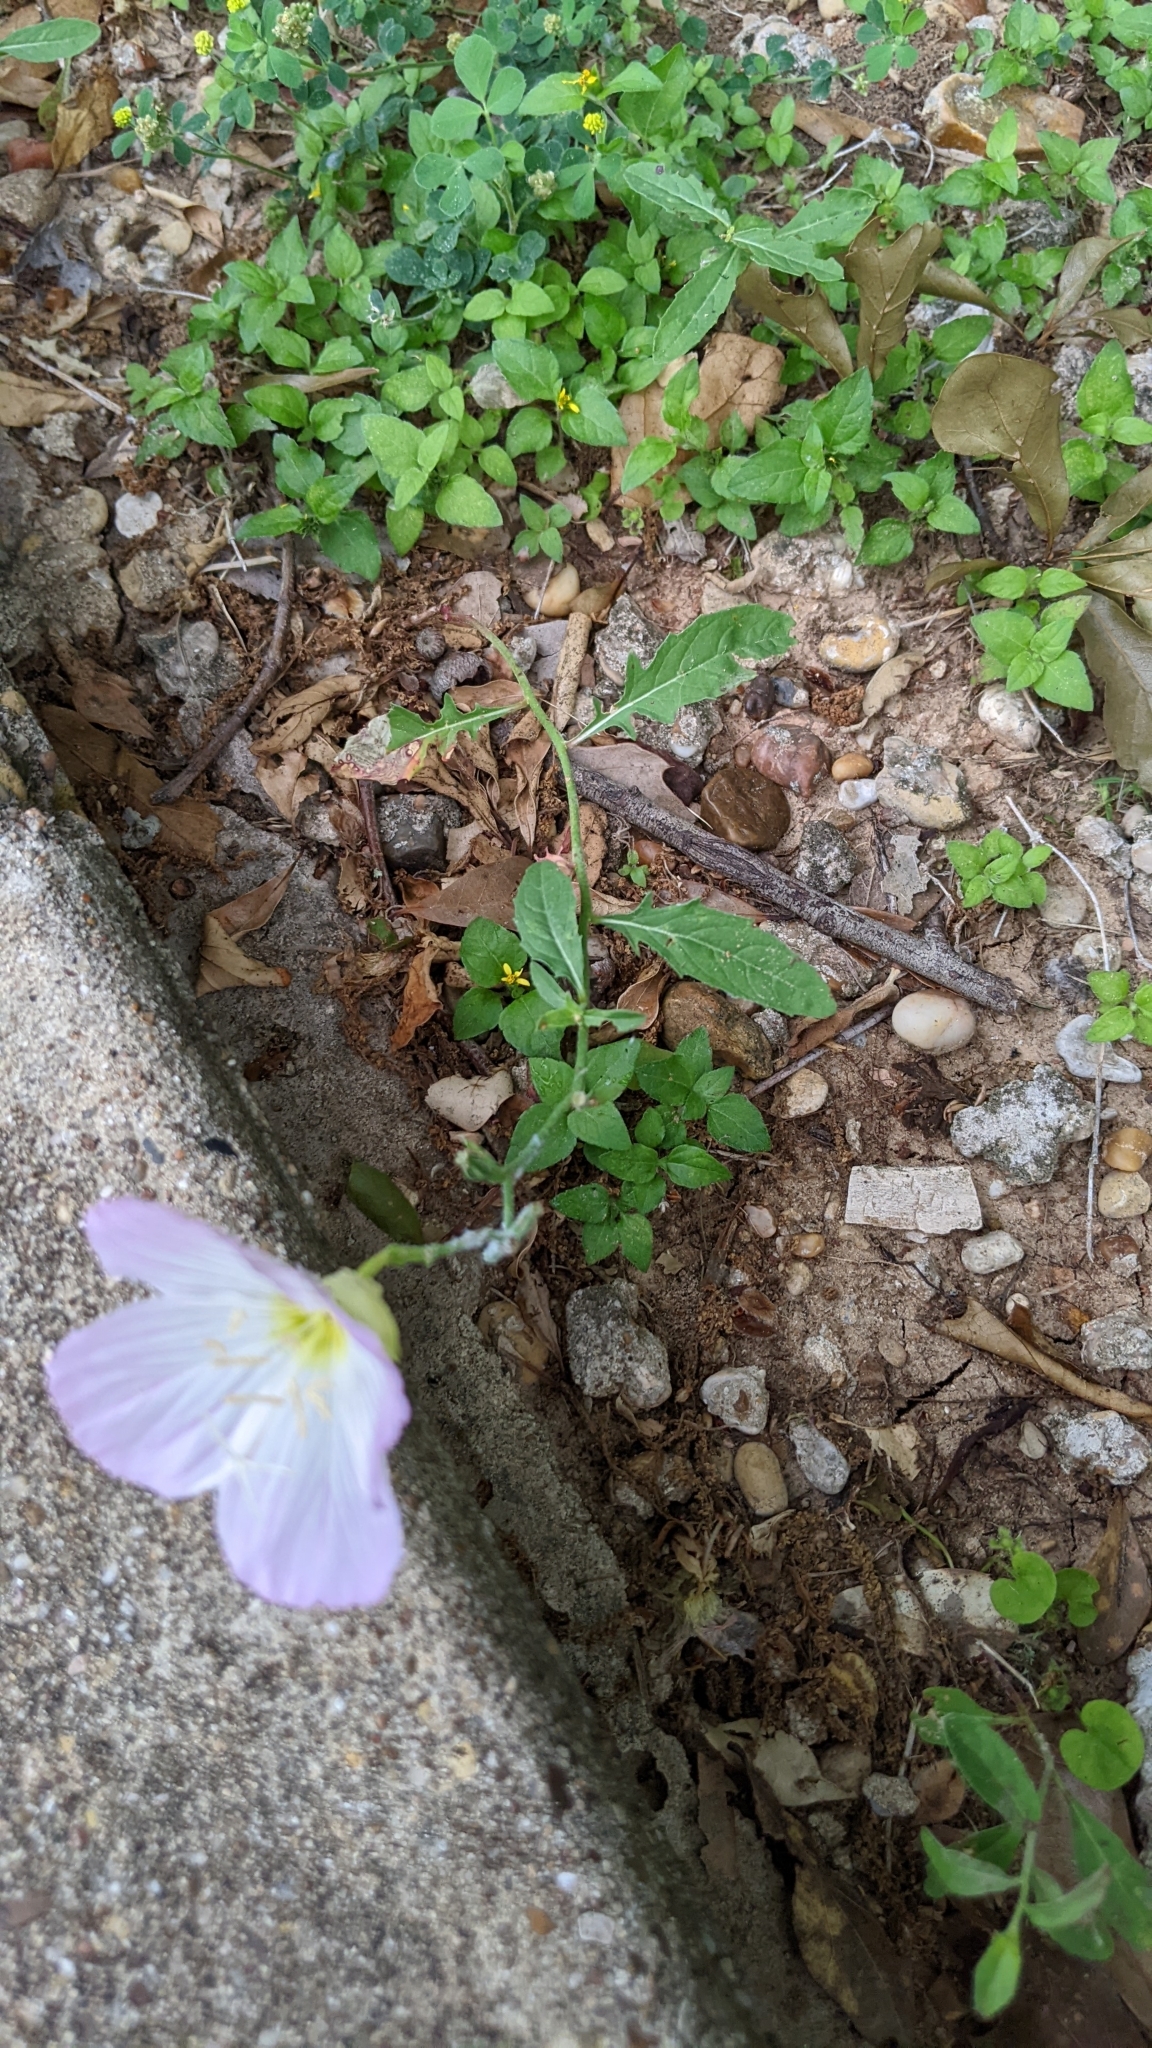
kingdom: Plantae
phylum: Tracheophyta
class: Magnoliopsida
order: Myrtales
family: Onagraceae
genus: Oenothera
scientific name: Oenothera speciosa
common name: White evening-primrose
